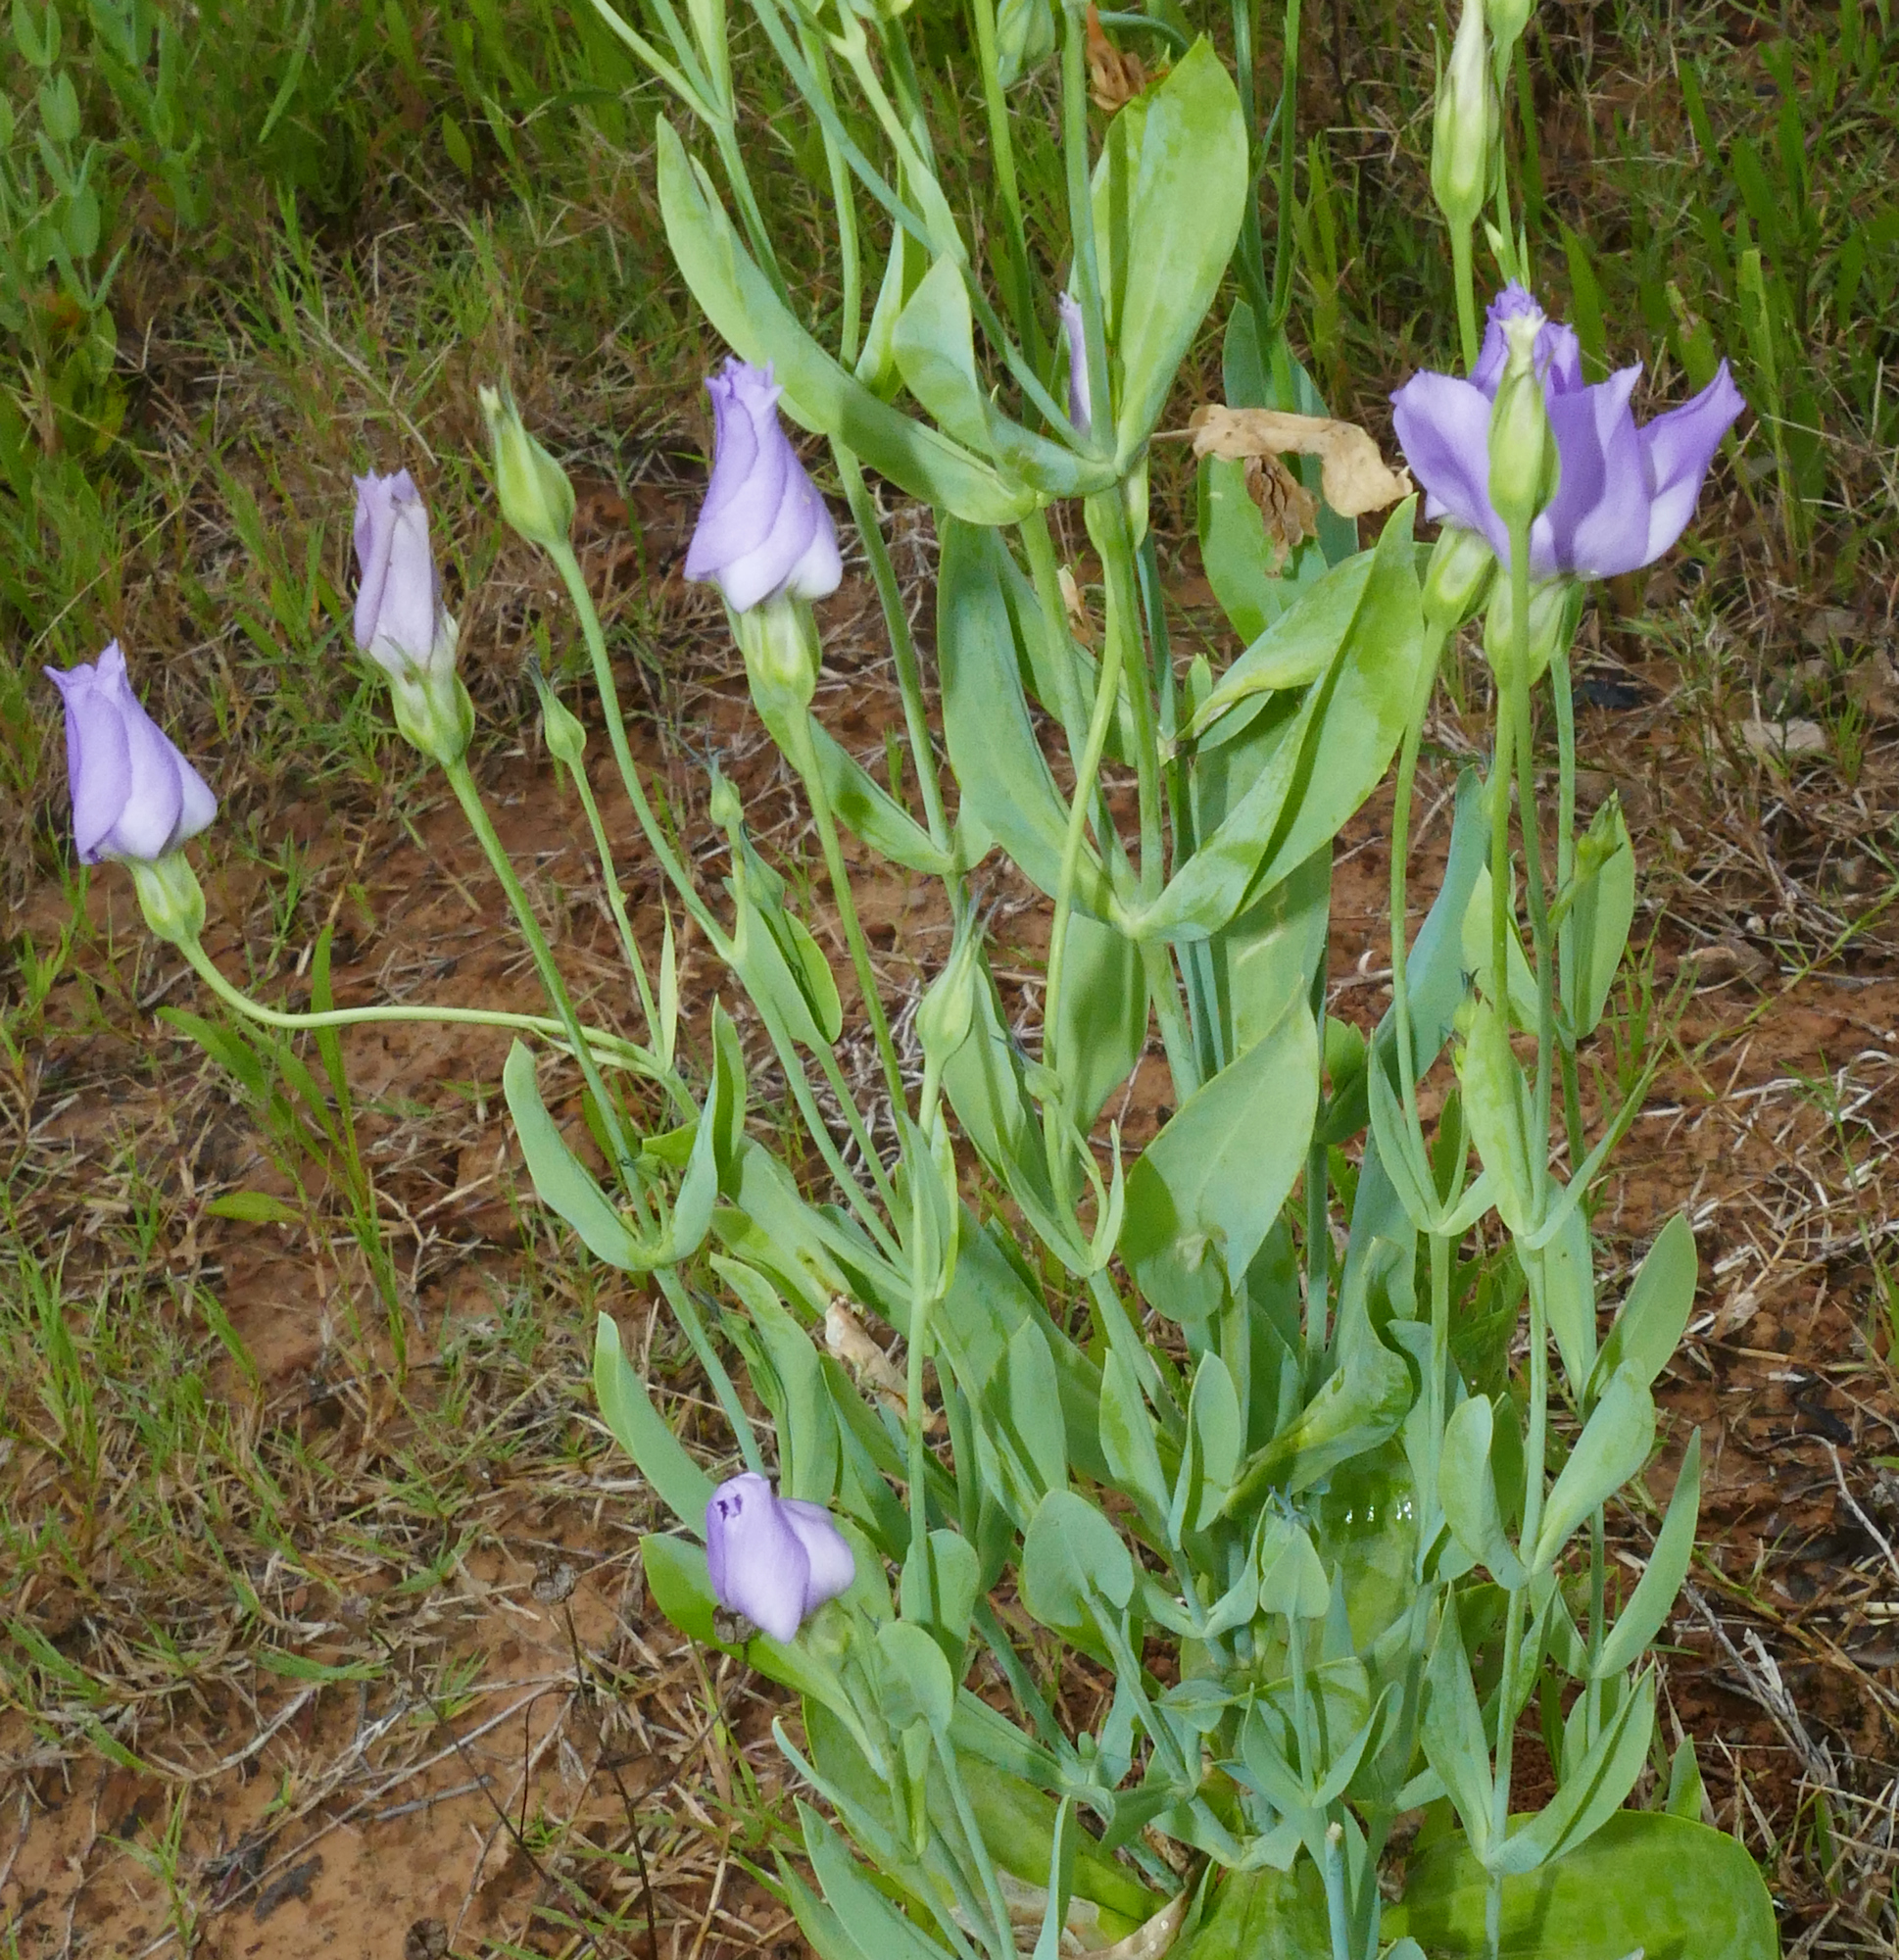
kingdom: Plantae
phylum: Tracheophyta
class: Magnoliopsida
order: Gentianales
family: Gentianaceae
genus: Eustoma
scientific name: Eustoma exaltatum
